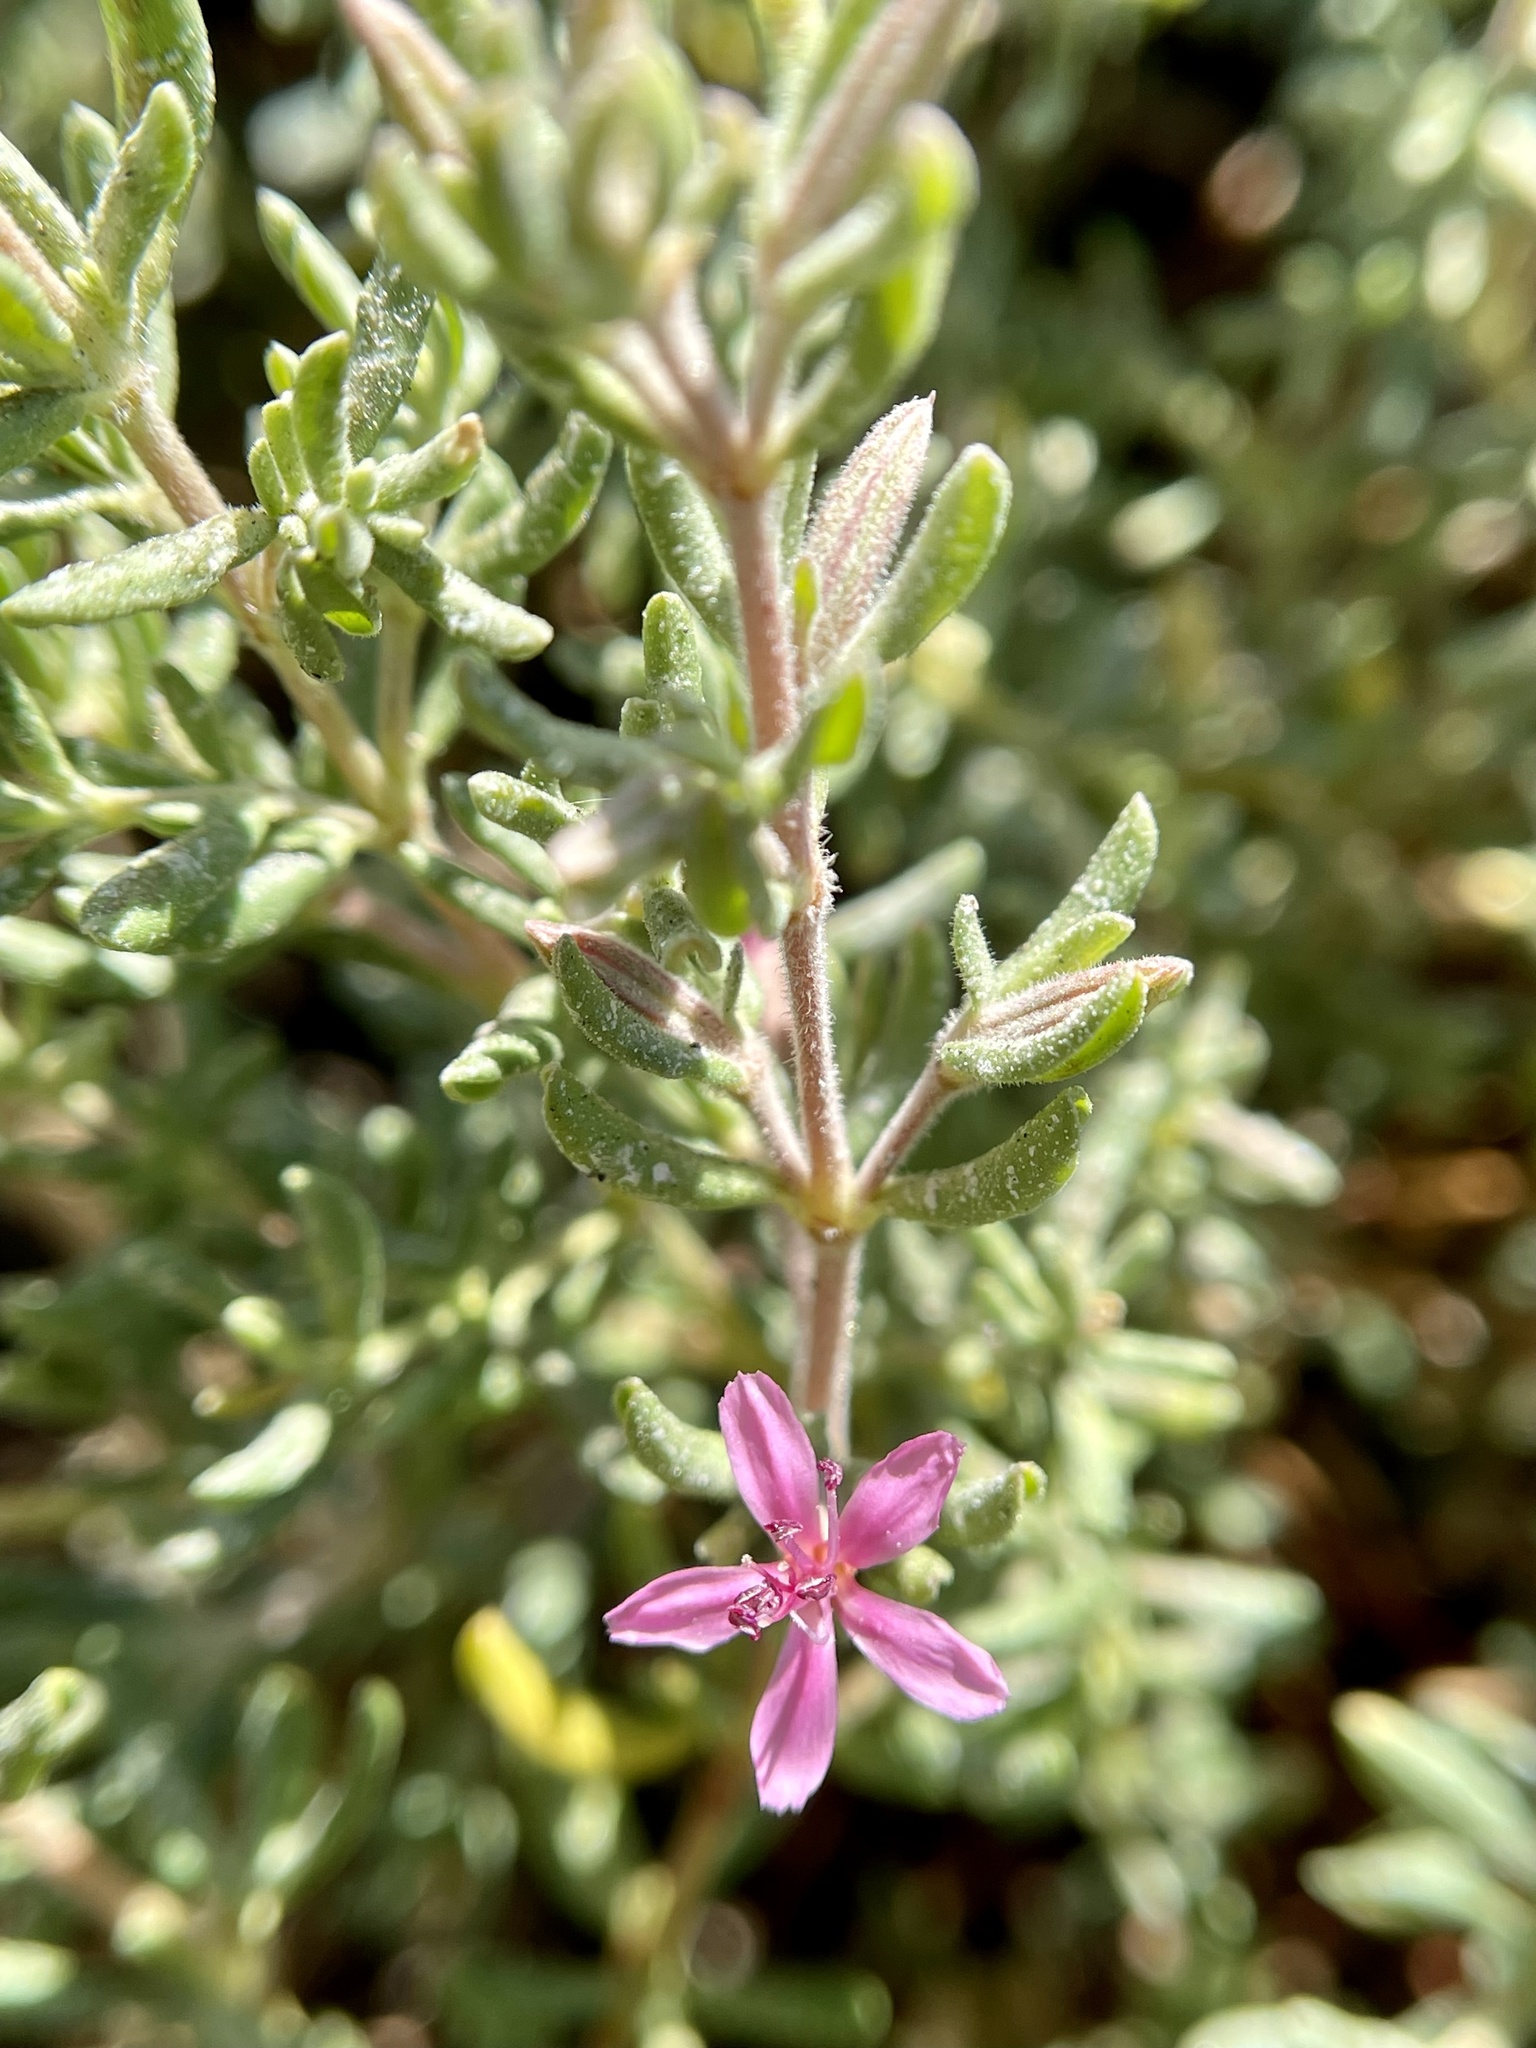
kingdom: Plantae
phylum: Tracheophyta
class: Magnoliopsida
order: Caryophyllales
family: Frankeniaceae
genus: Frankenia
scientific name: Frankenia salina
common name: Alkali seaheath
